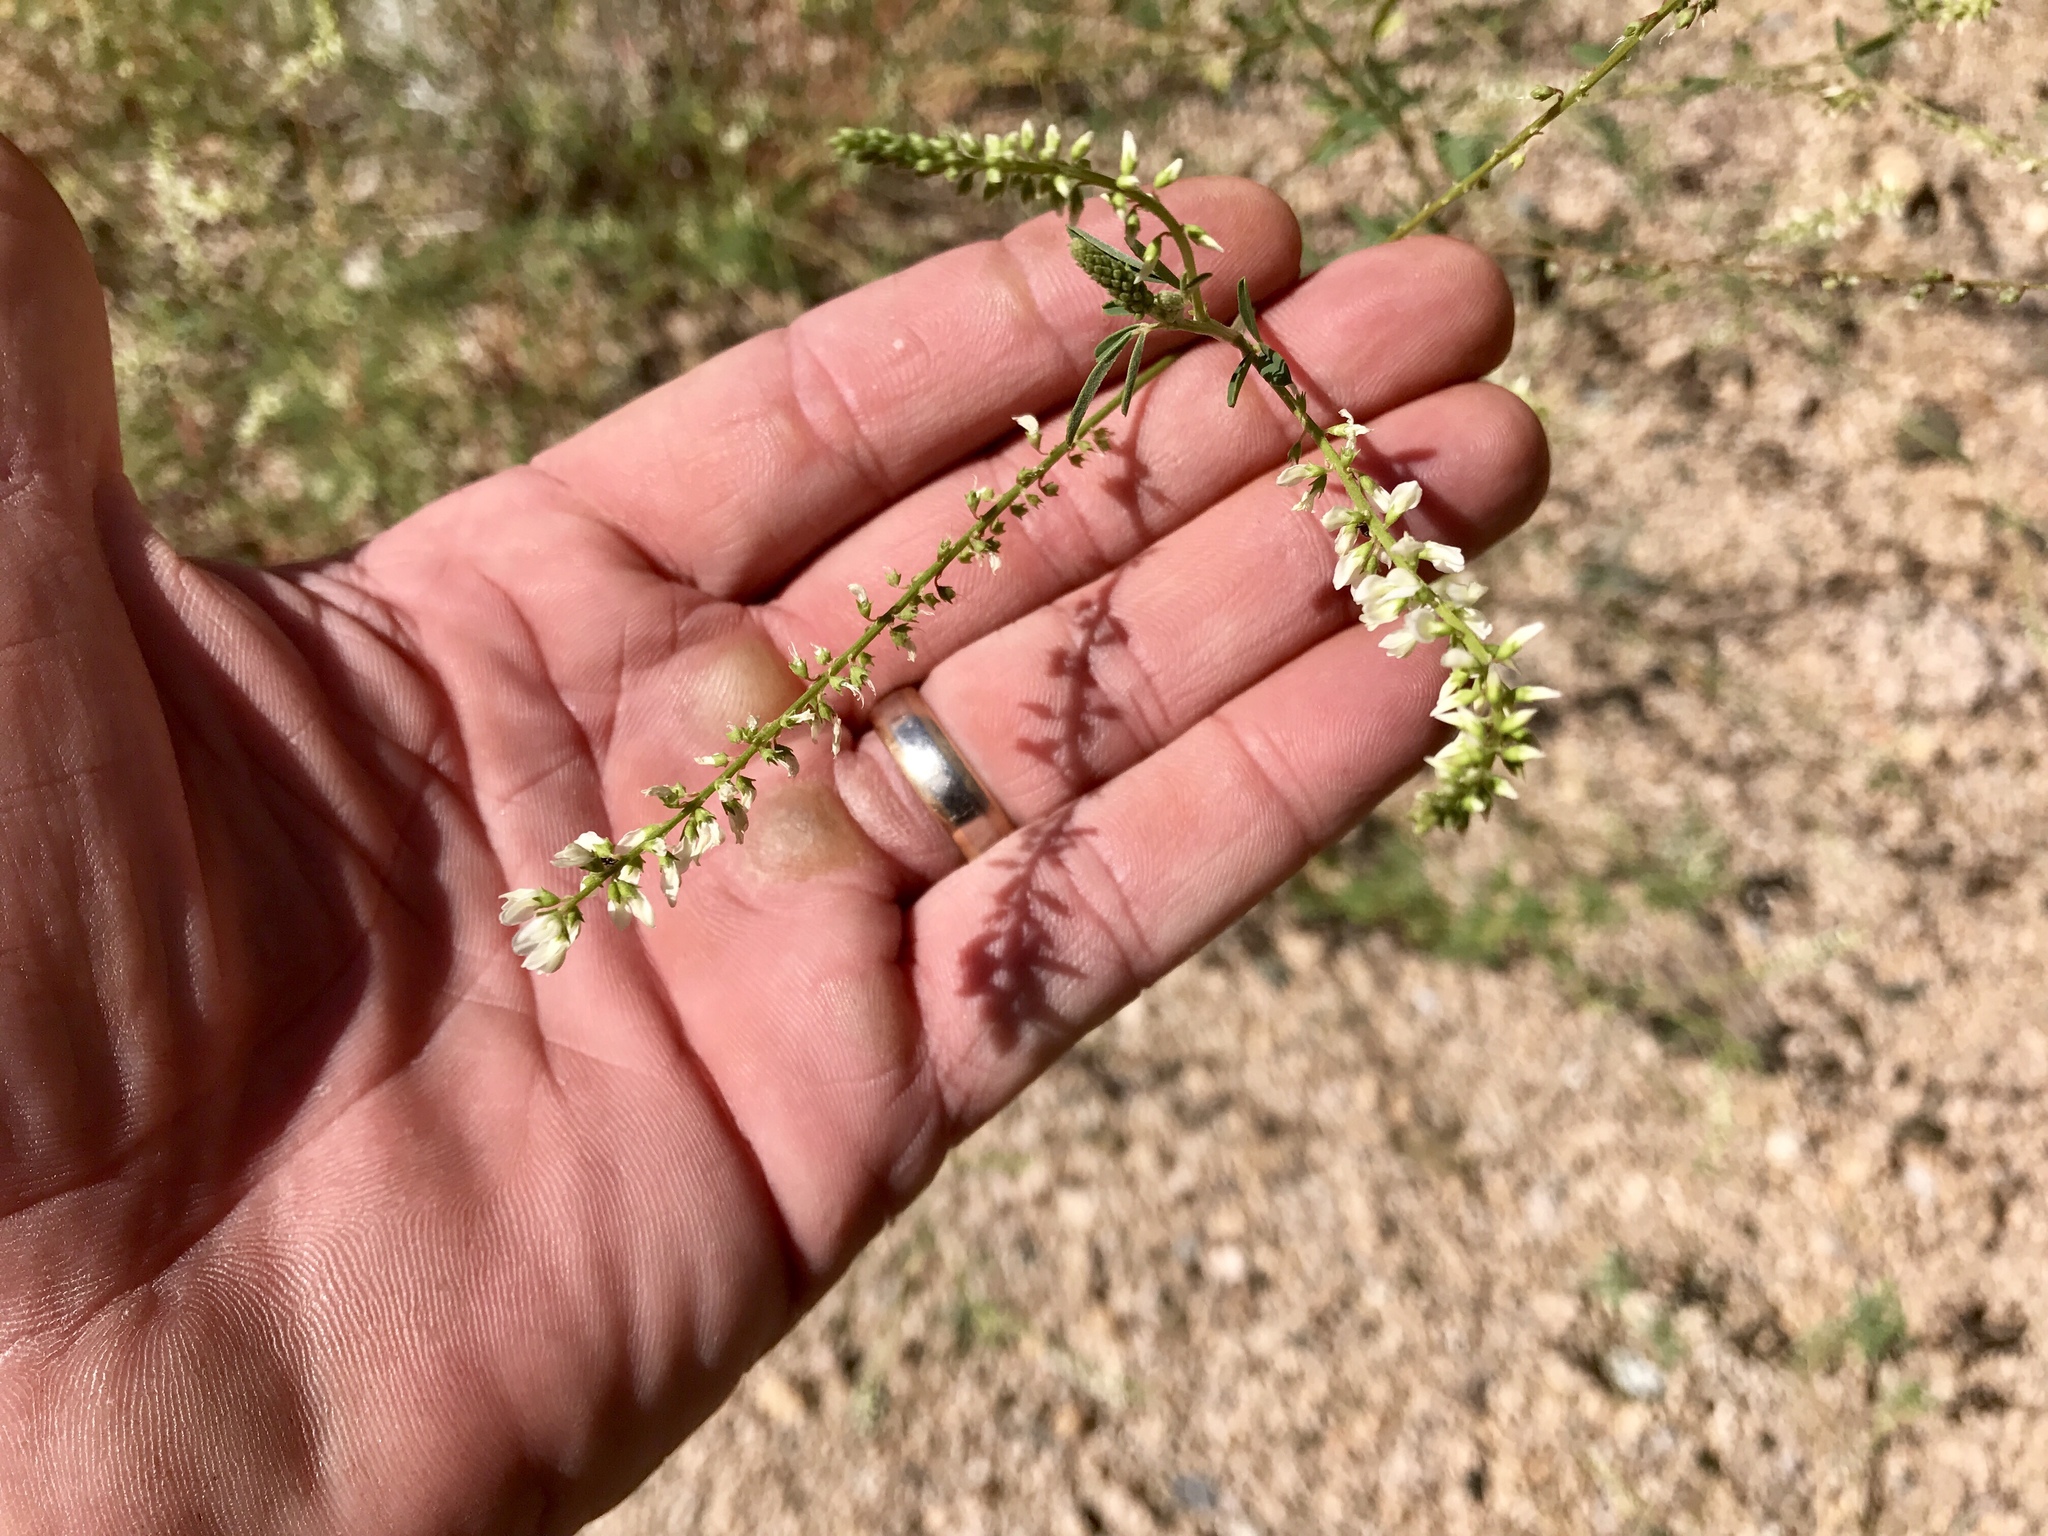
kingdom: Plantae
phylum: Tracheophyta
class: Magnoliopsida
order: Fabales
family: Fabaceae
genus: Melilotus
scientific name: Melilotus albus
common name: White melilot
